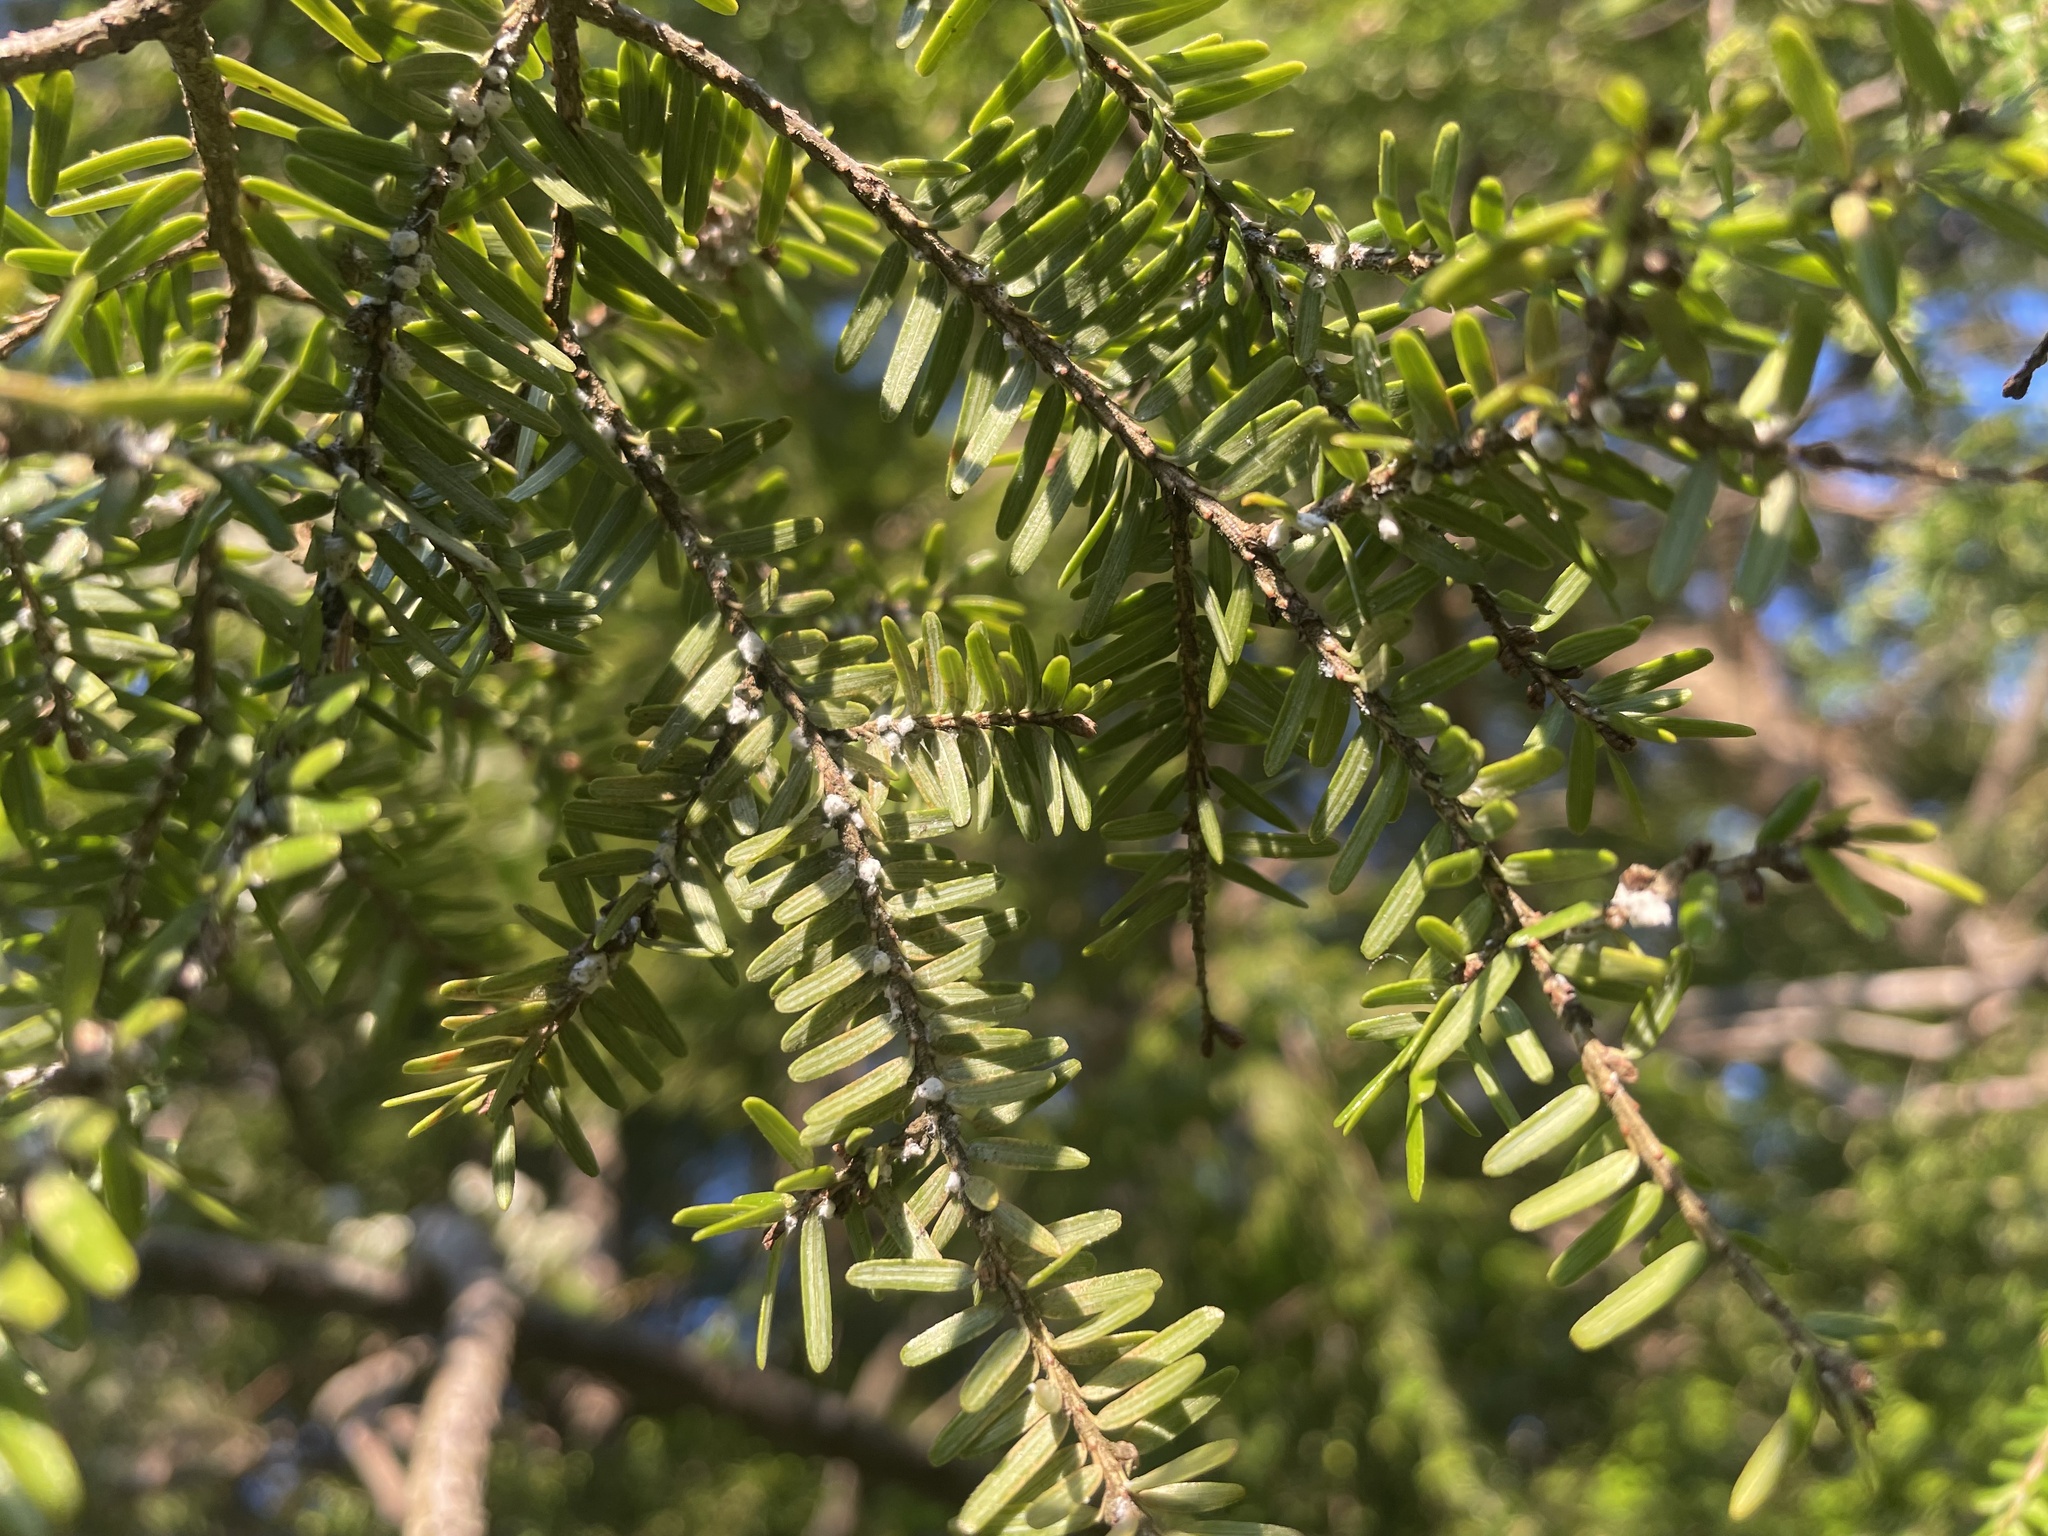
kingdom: Animalia
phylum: Arthropoda
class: Insecta
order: Hemiptera
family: Adelgidae
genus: Adelges
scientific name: Adelges tsugae
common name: Hemlock woolly adelgid
